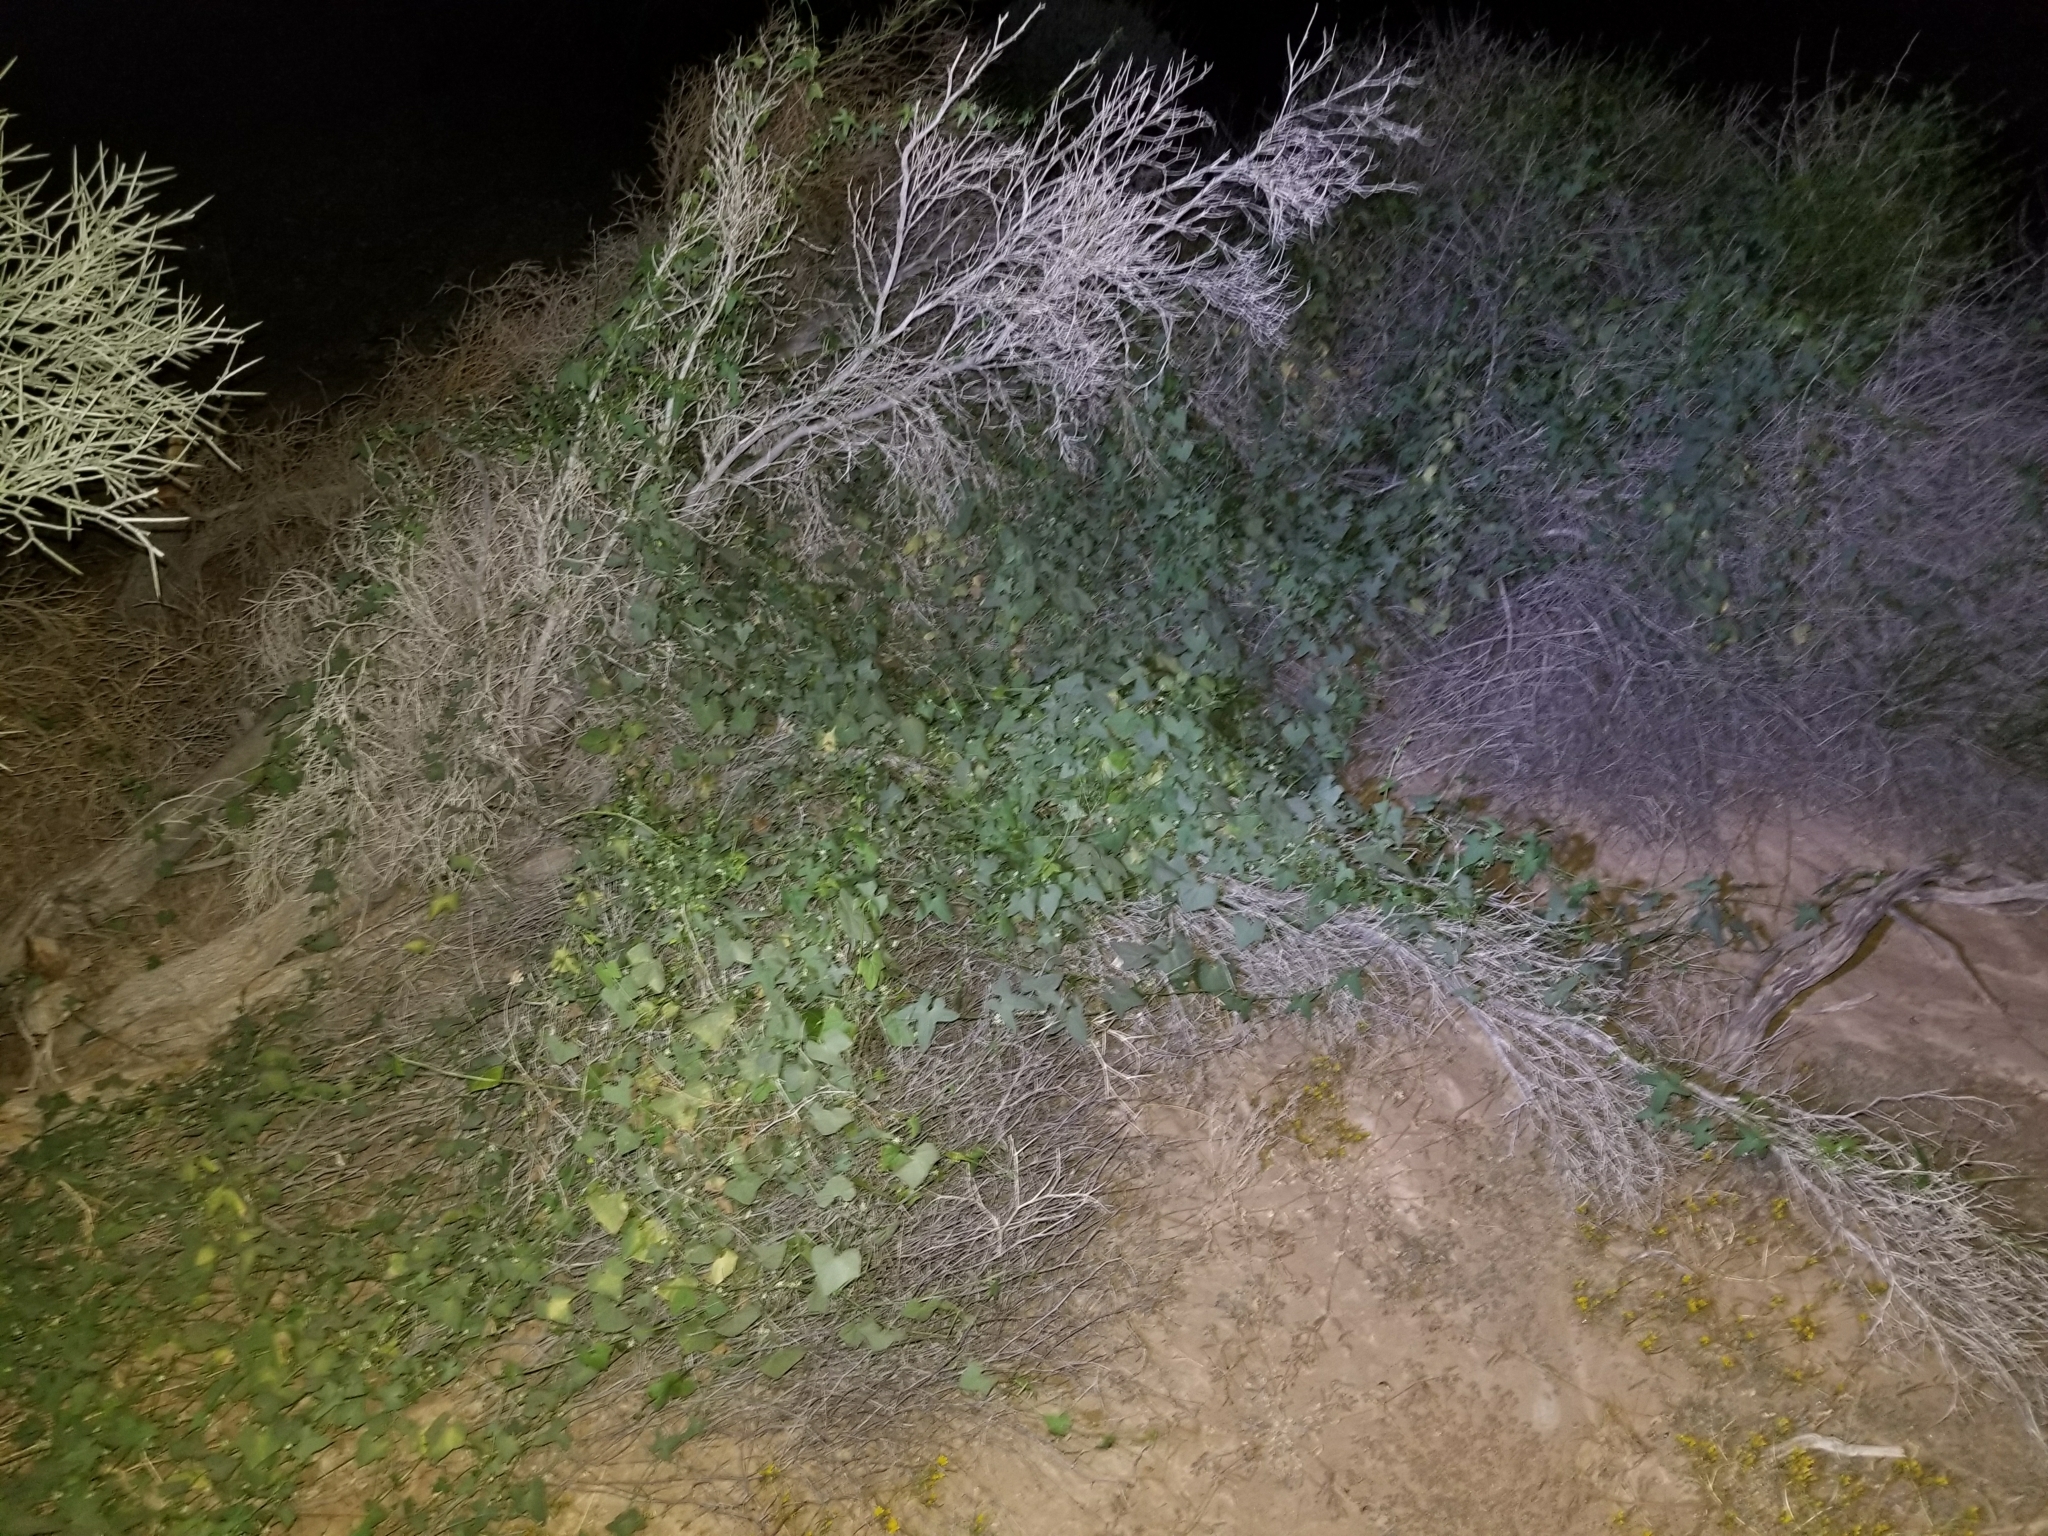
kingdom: Plantae
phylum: Tracheophyta
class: Magnoliopsida
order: Cucurbitales
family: Cucurbitaceae
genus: Echinopepon
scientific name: Echinopepon bigelovii
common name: Desert starvine
